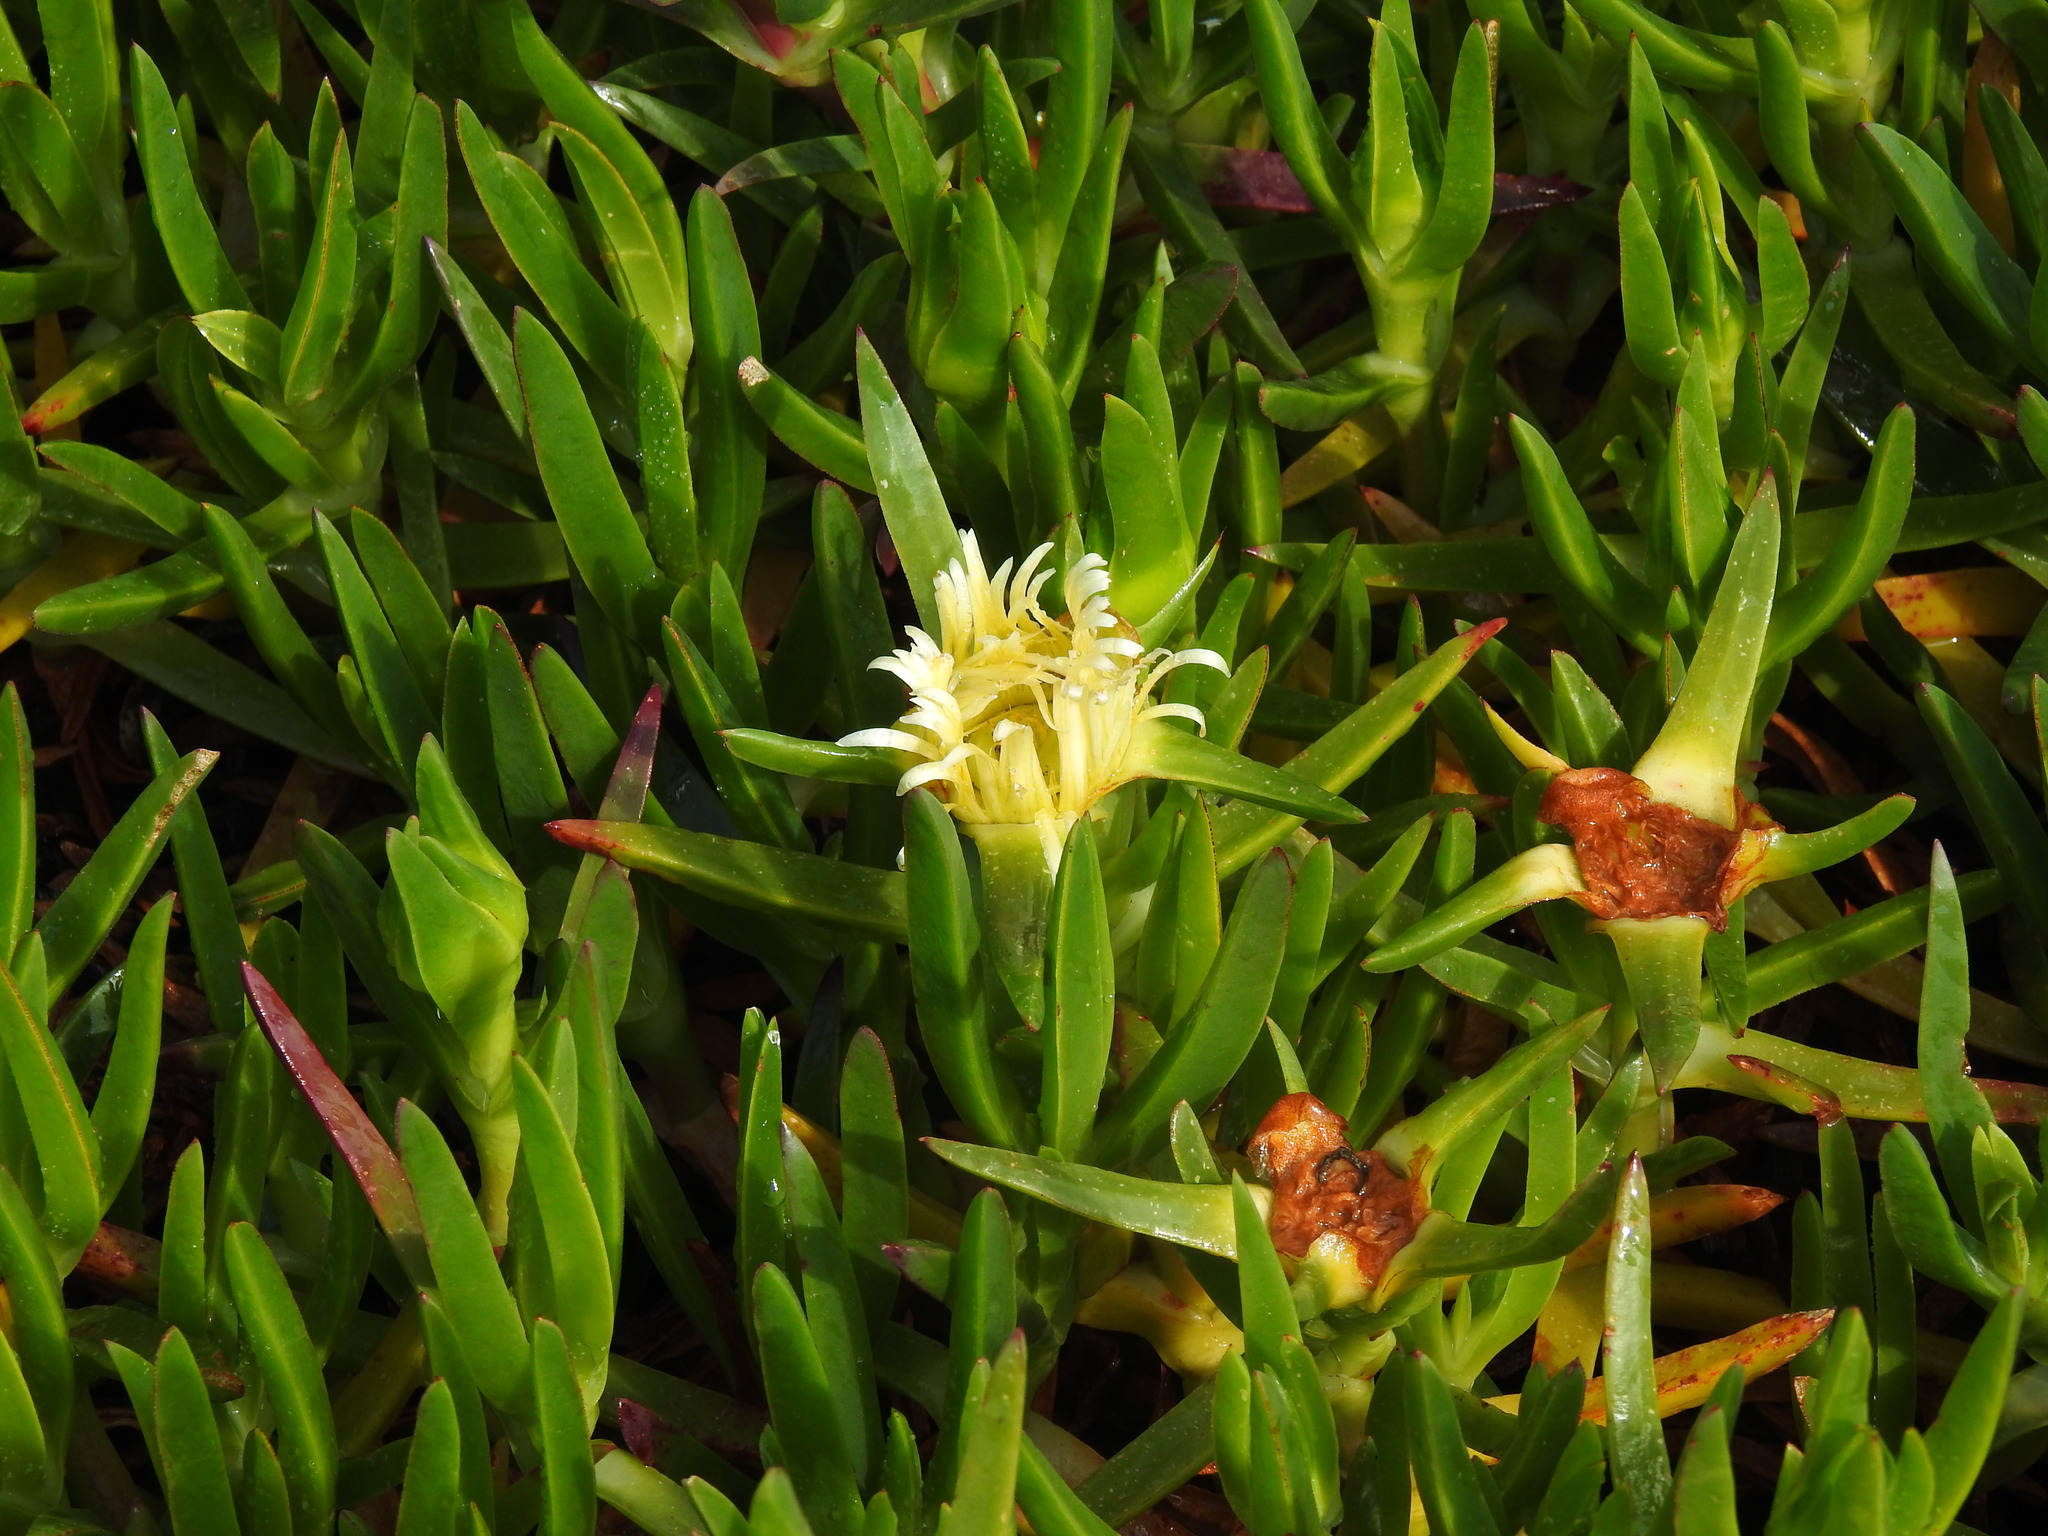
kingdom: Plantae
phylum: Tracheophyta
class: Magnoliopsida
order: Caryophyllales
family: Aizoaceae
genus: Carpobrotus
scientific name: Carpobrotus edulis
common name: Hottentot-fig
